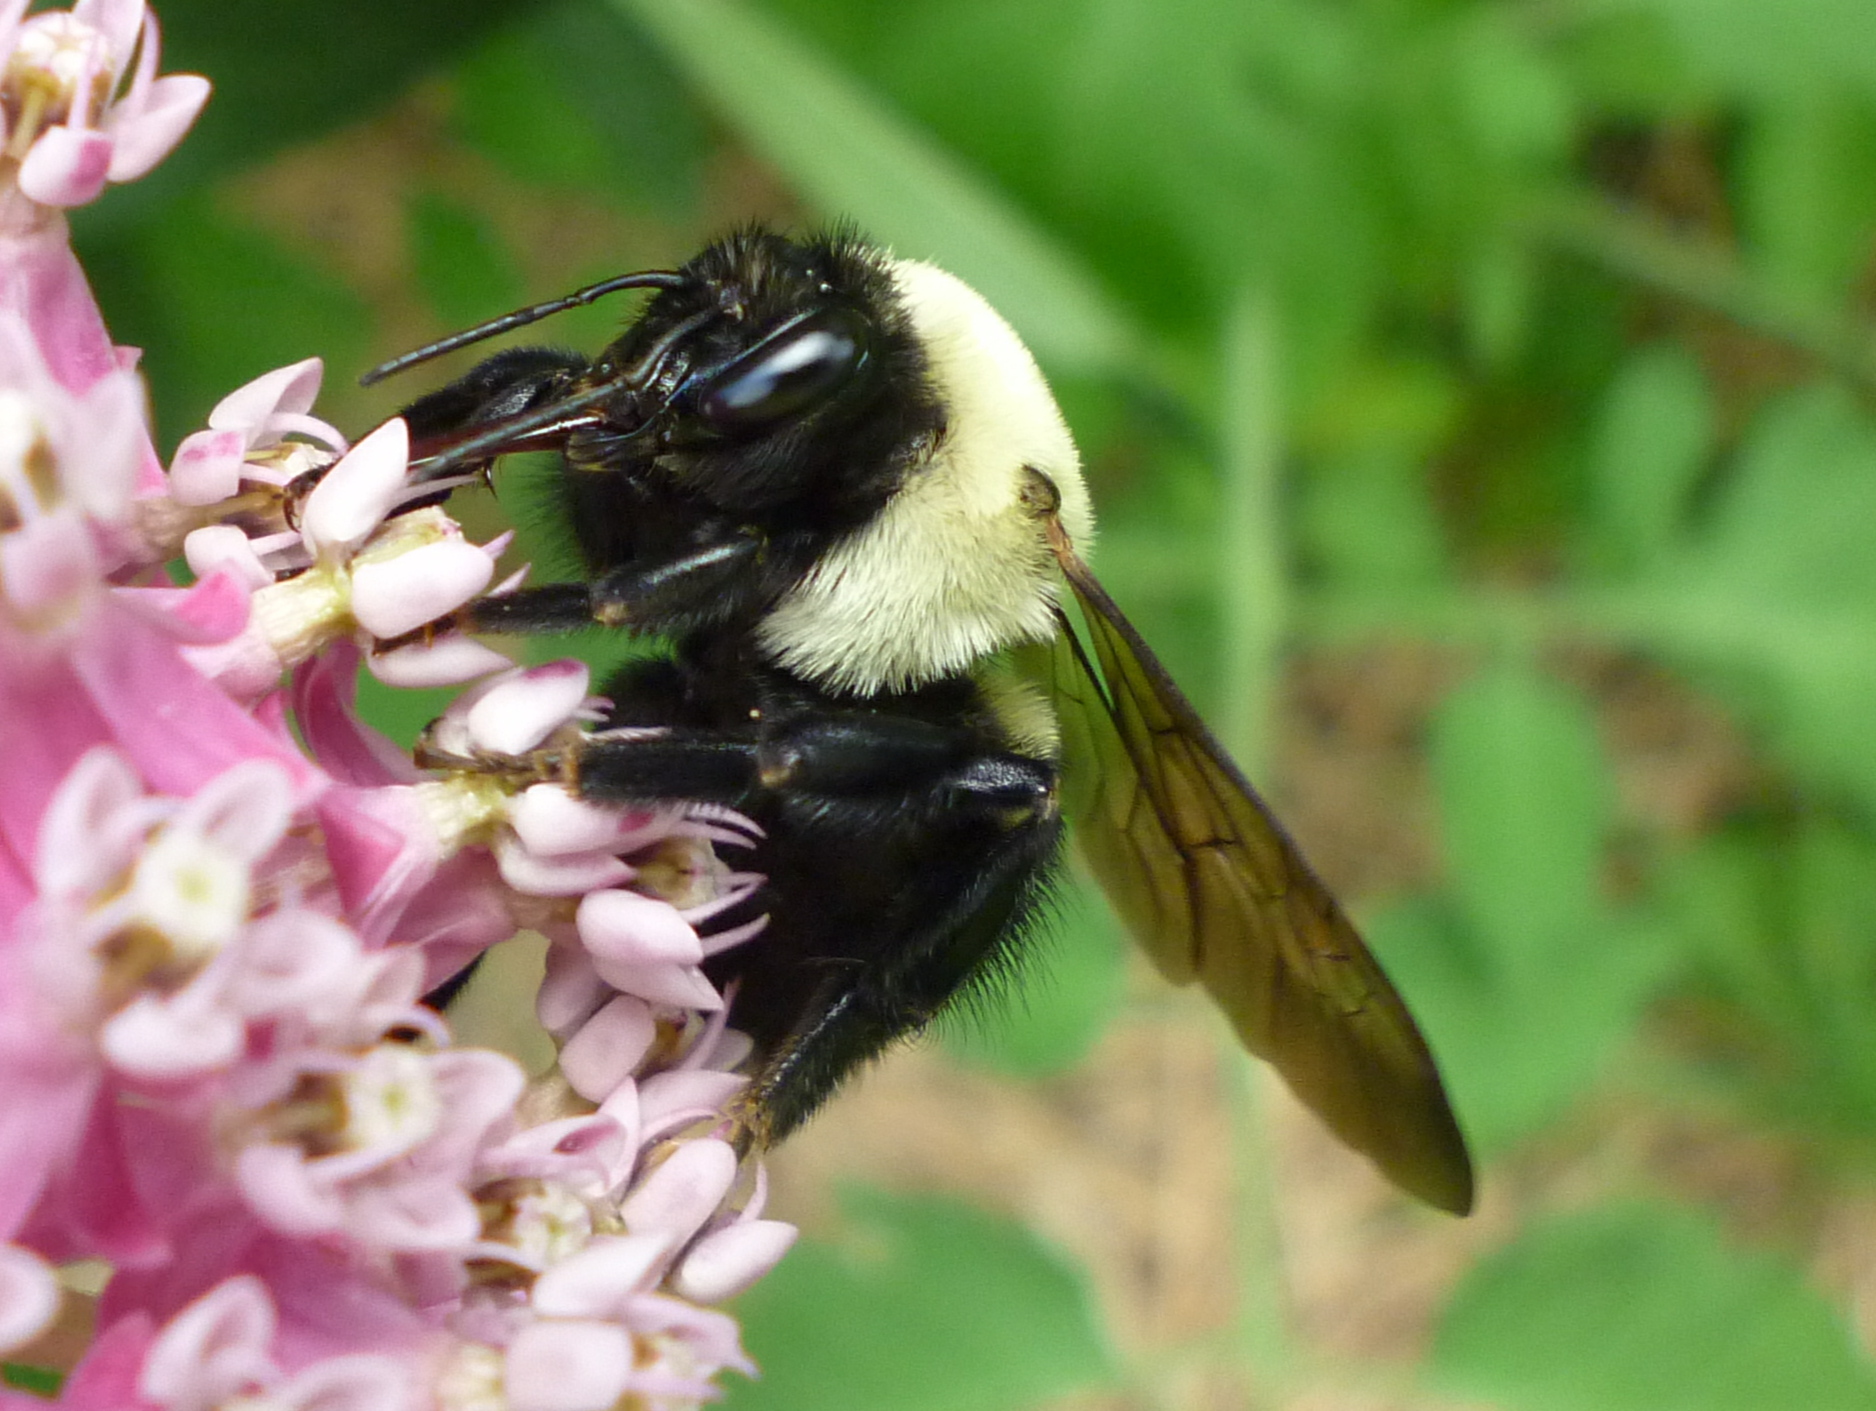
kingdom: Animalia
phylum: Arthropoda
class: Insecta
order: Hymenoptera
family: Apidae
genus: Xylocopa
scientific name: Xylocopa virginica
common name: Carpenter bee
